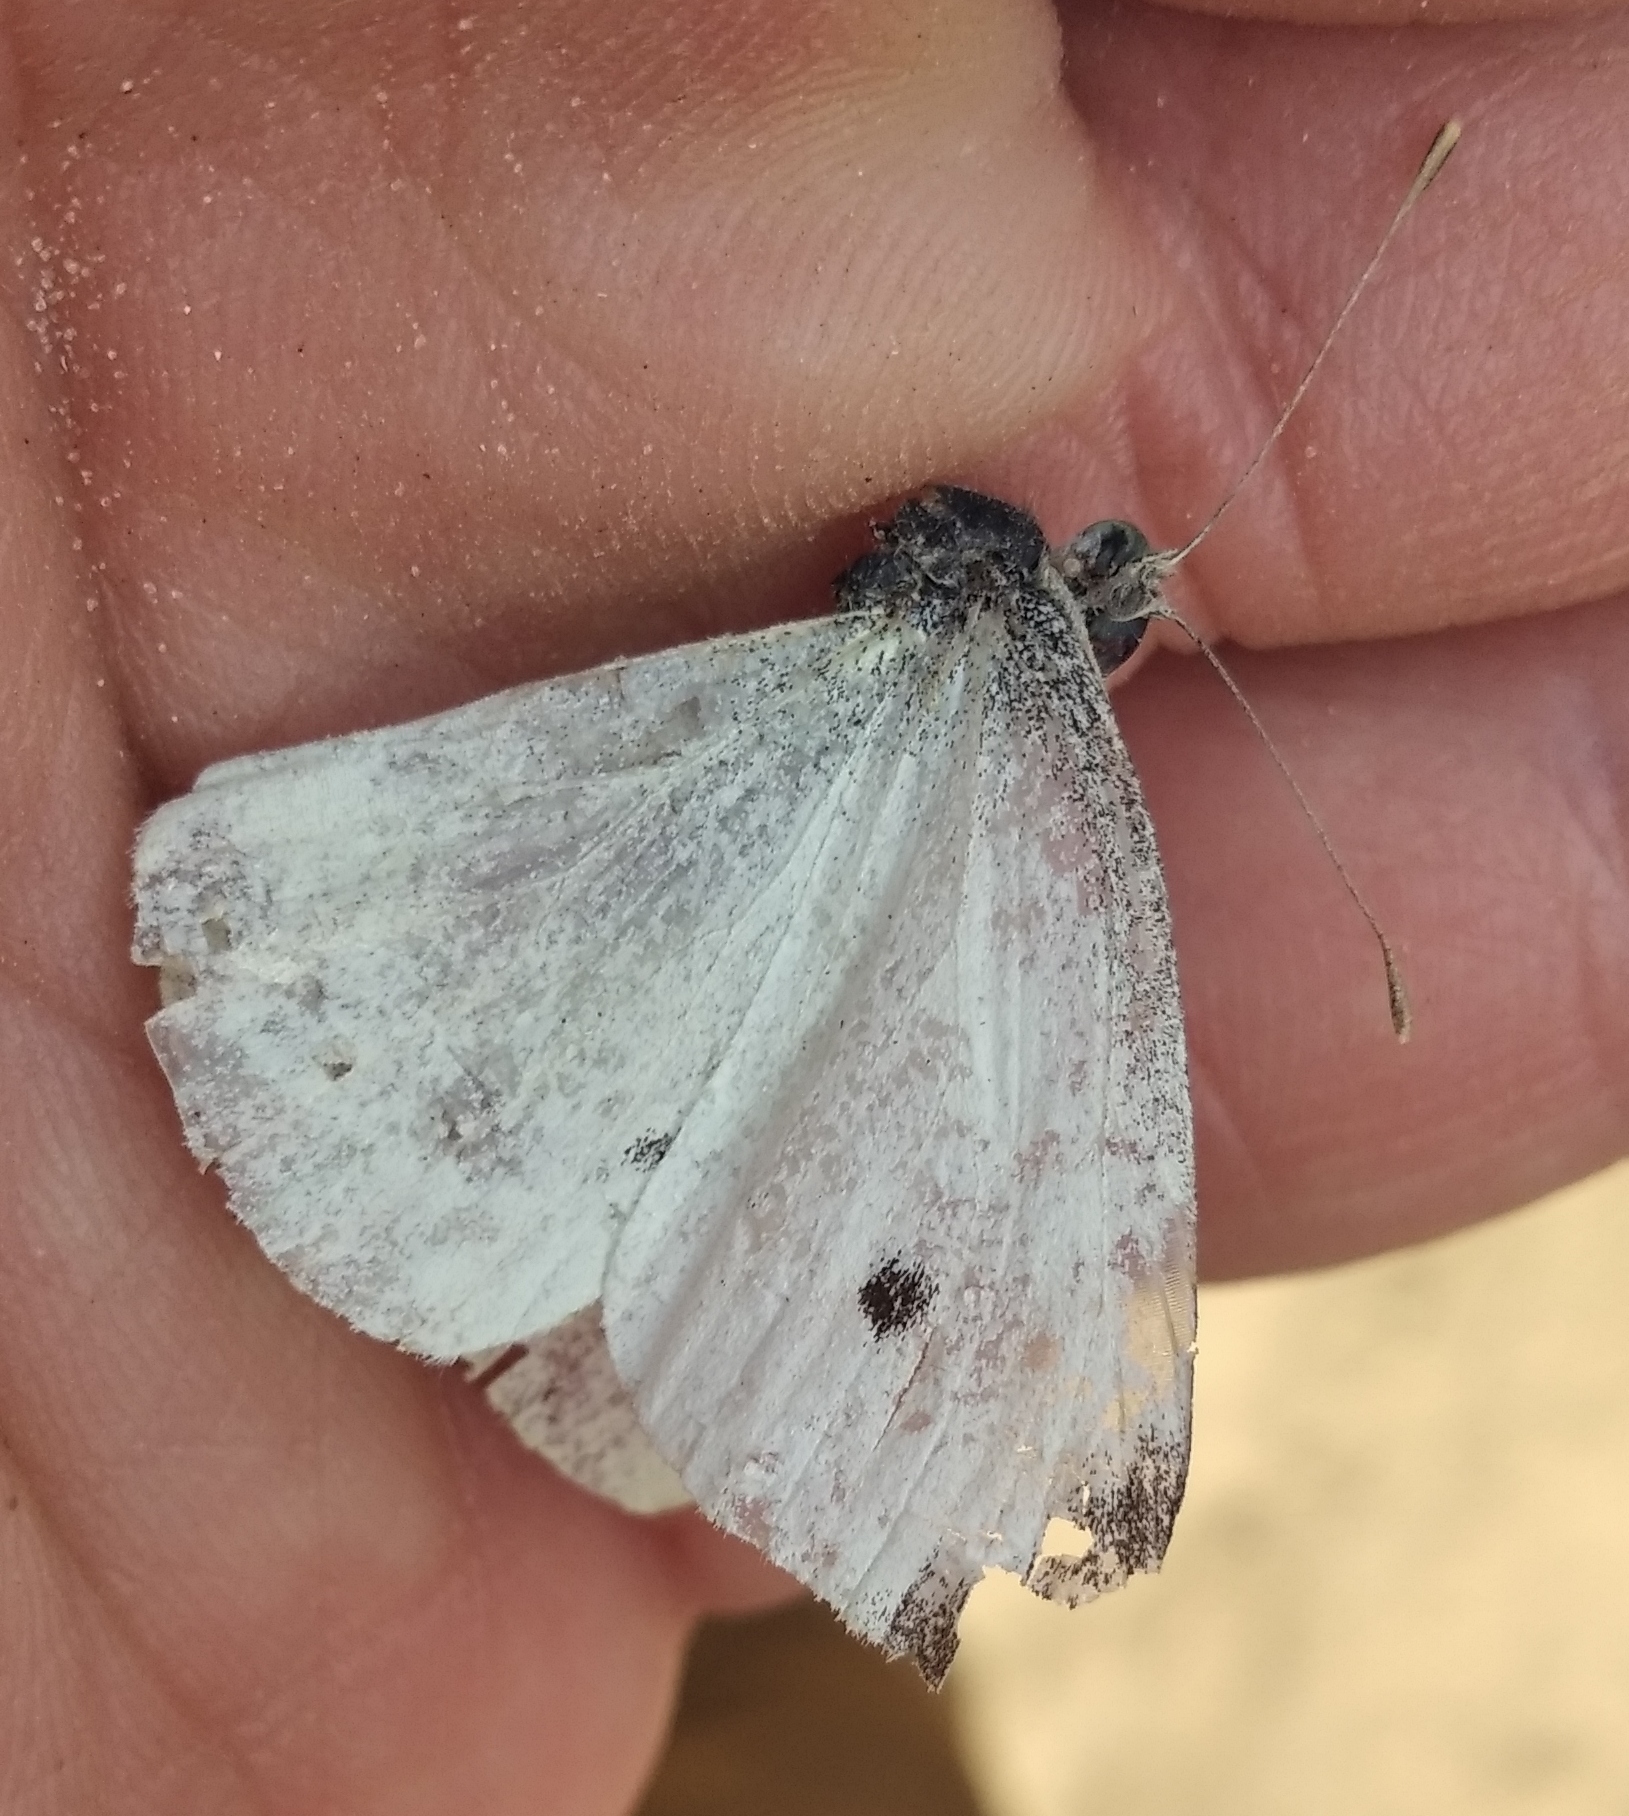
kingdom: Animalia
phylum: Arthropoda
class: Insecta
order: Lepidoptera
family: Pieridae
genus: Pieris
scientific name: Pieris rapae
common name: Small white
